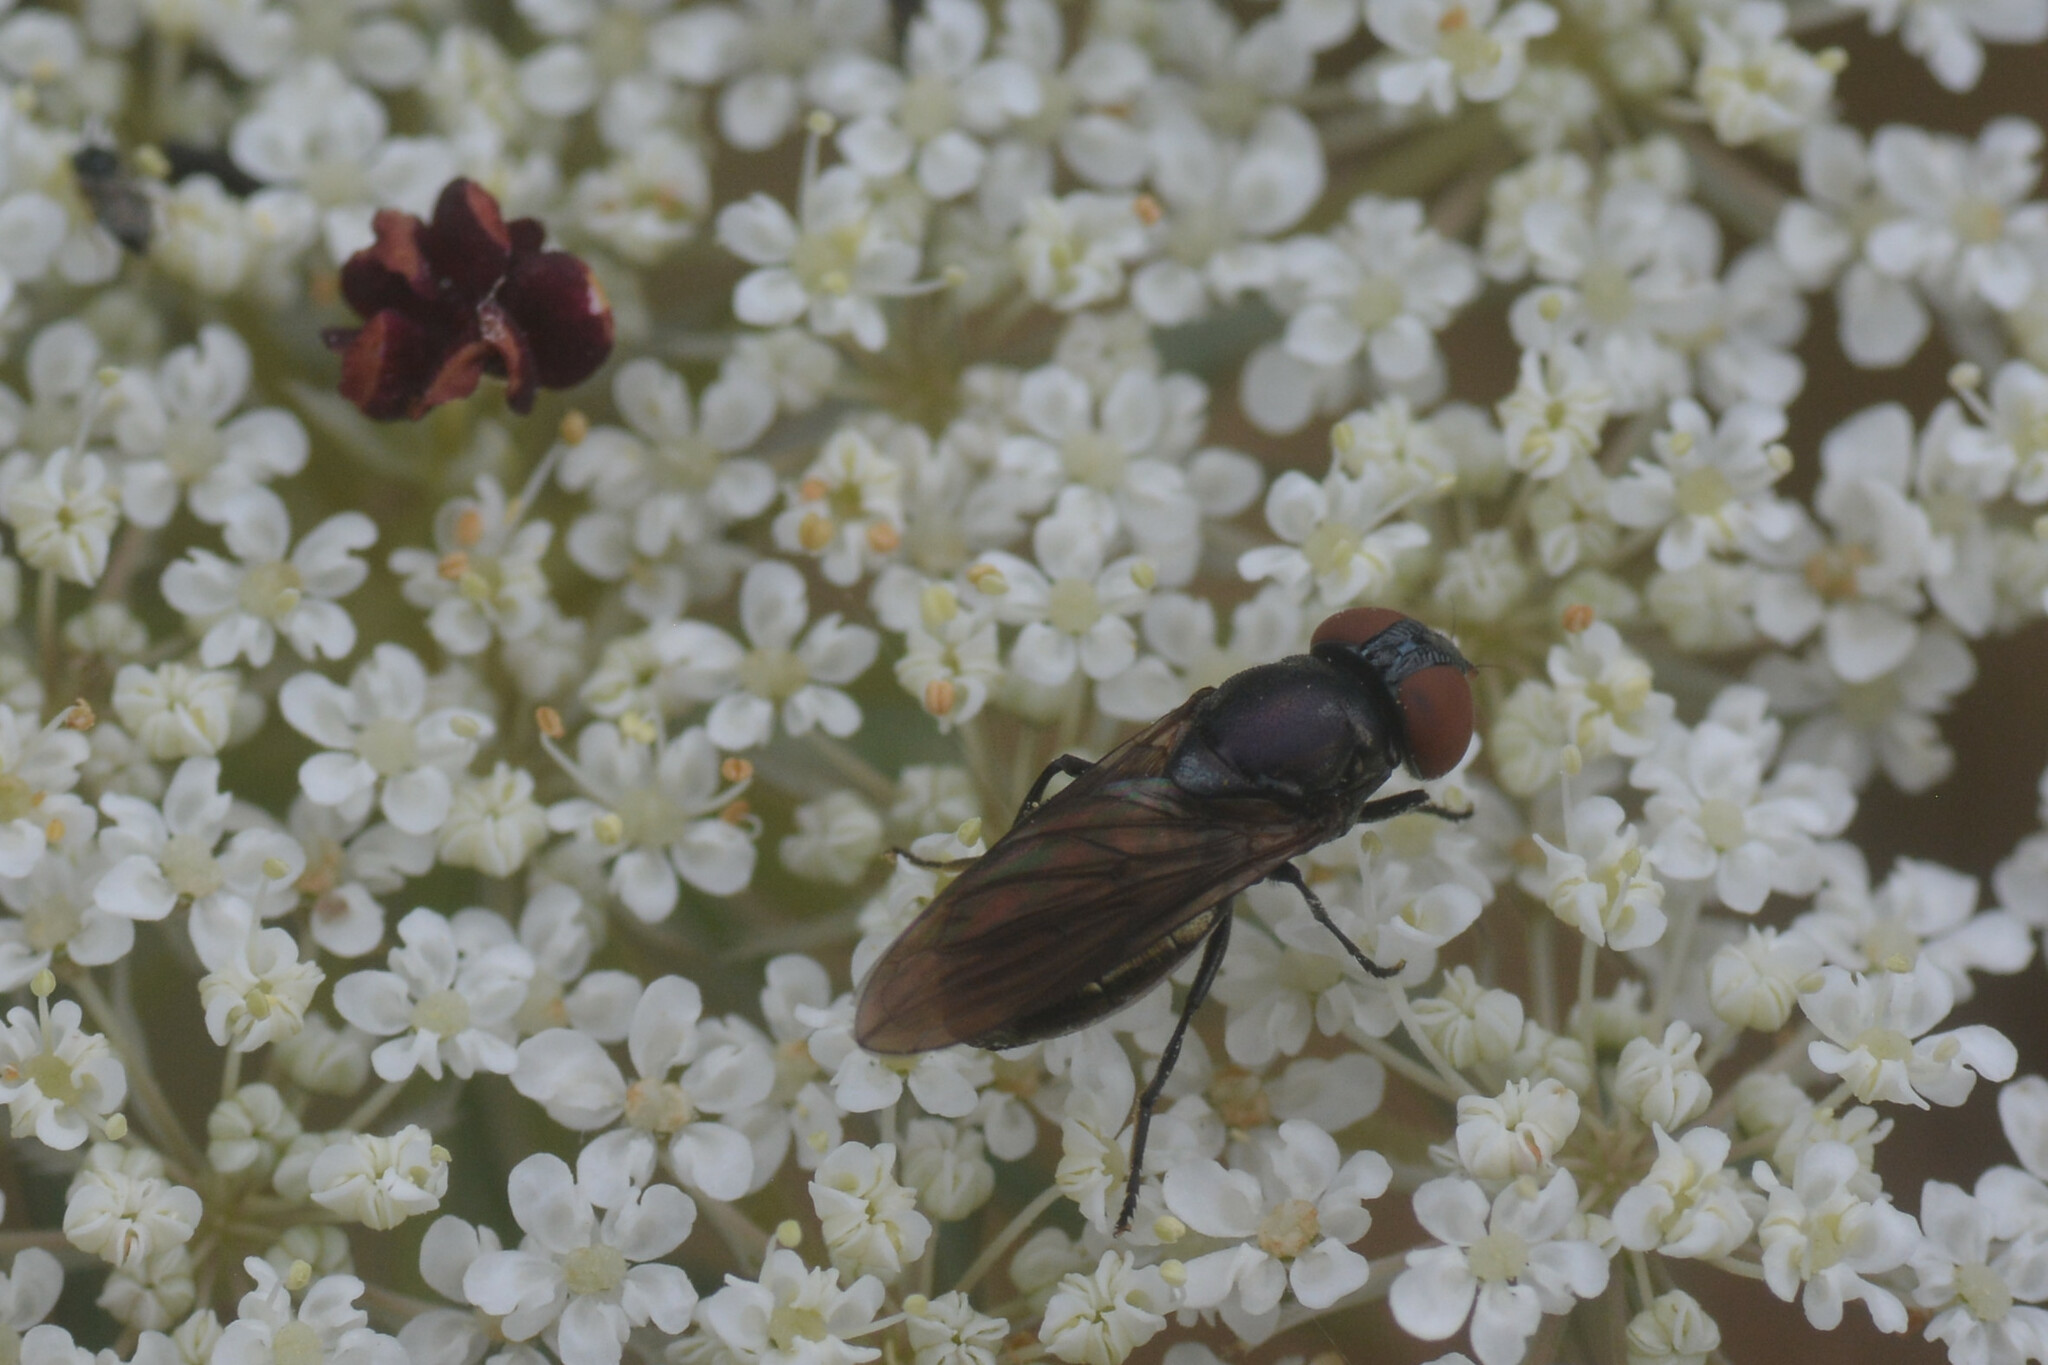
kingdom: Animalia
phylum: Arthropoda
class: Insecta
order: Diptera
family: Syrphidae
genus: Chrysogaster
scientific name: Chrysogaster solstitialis
